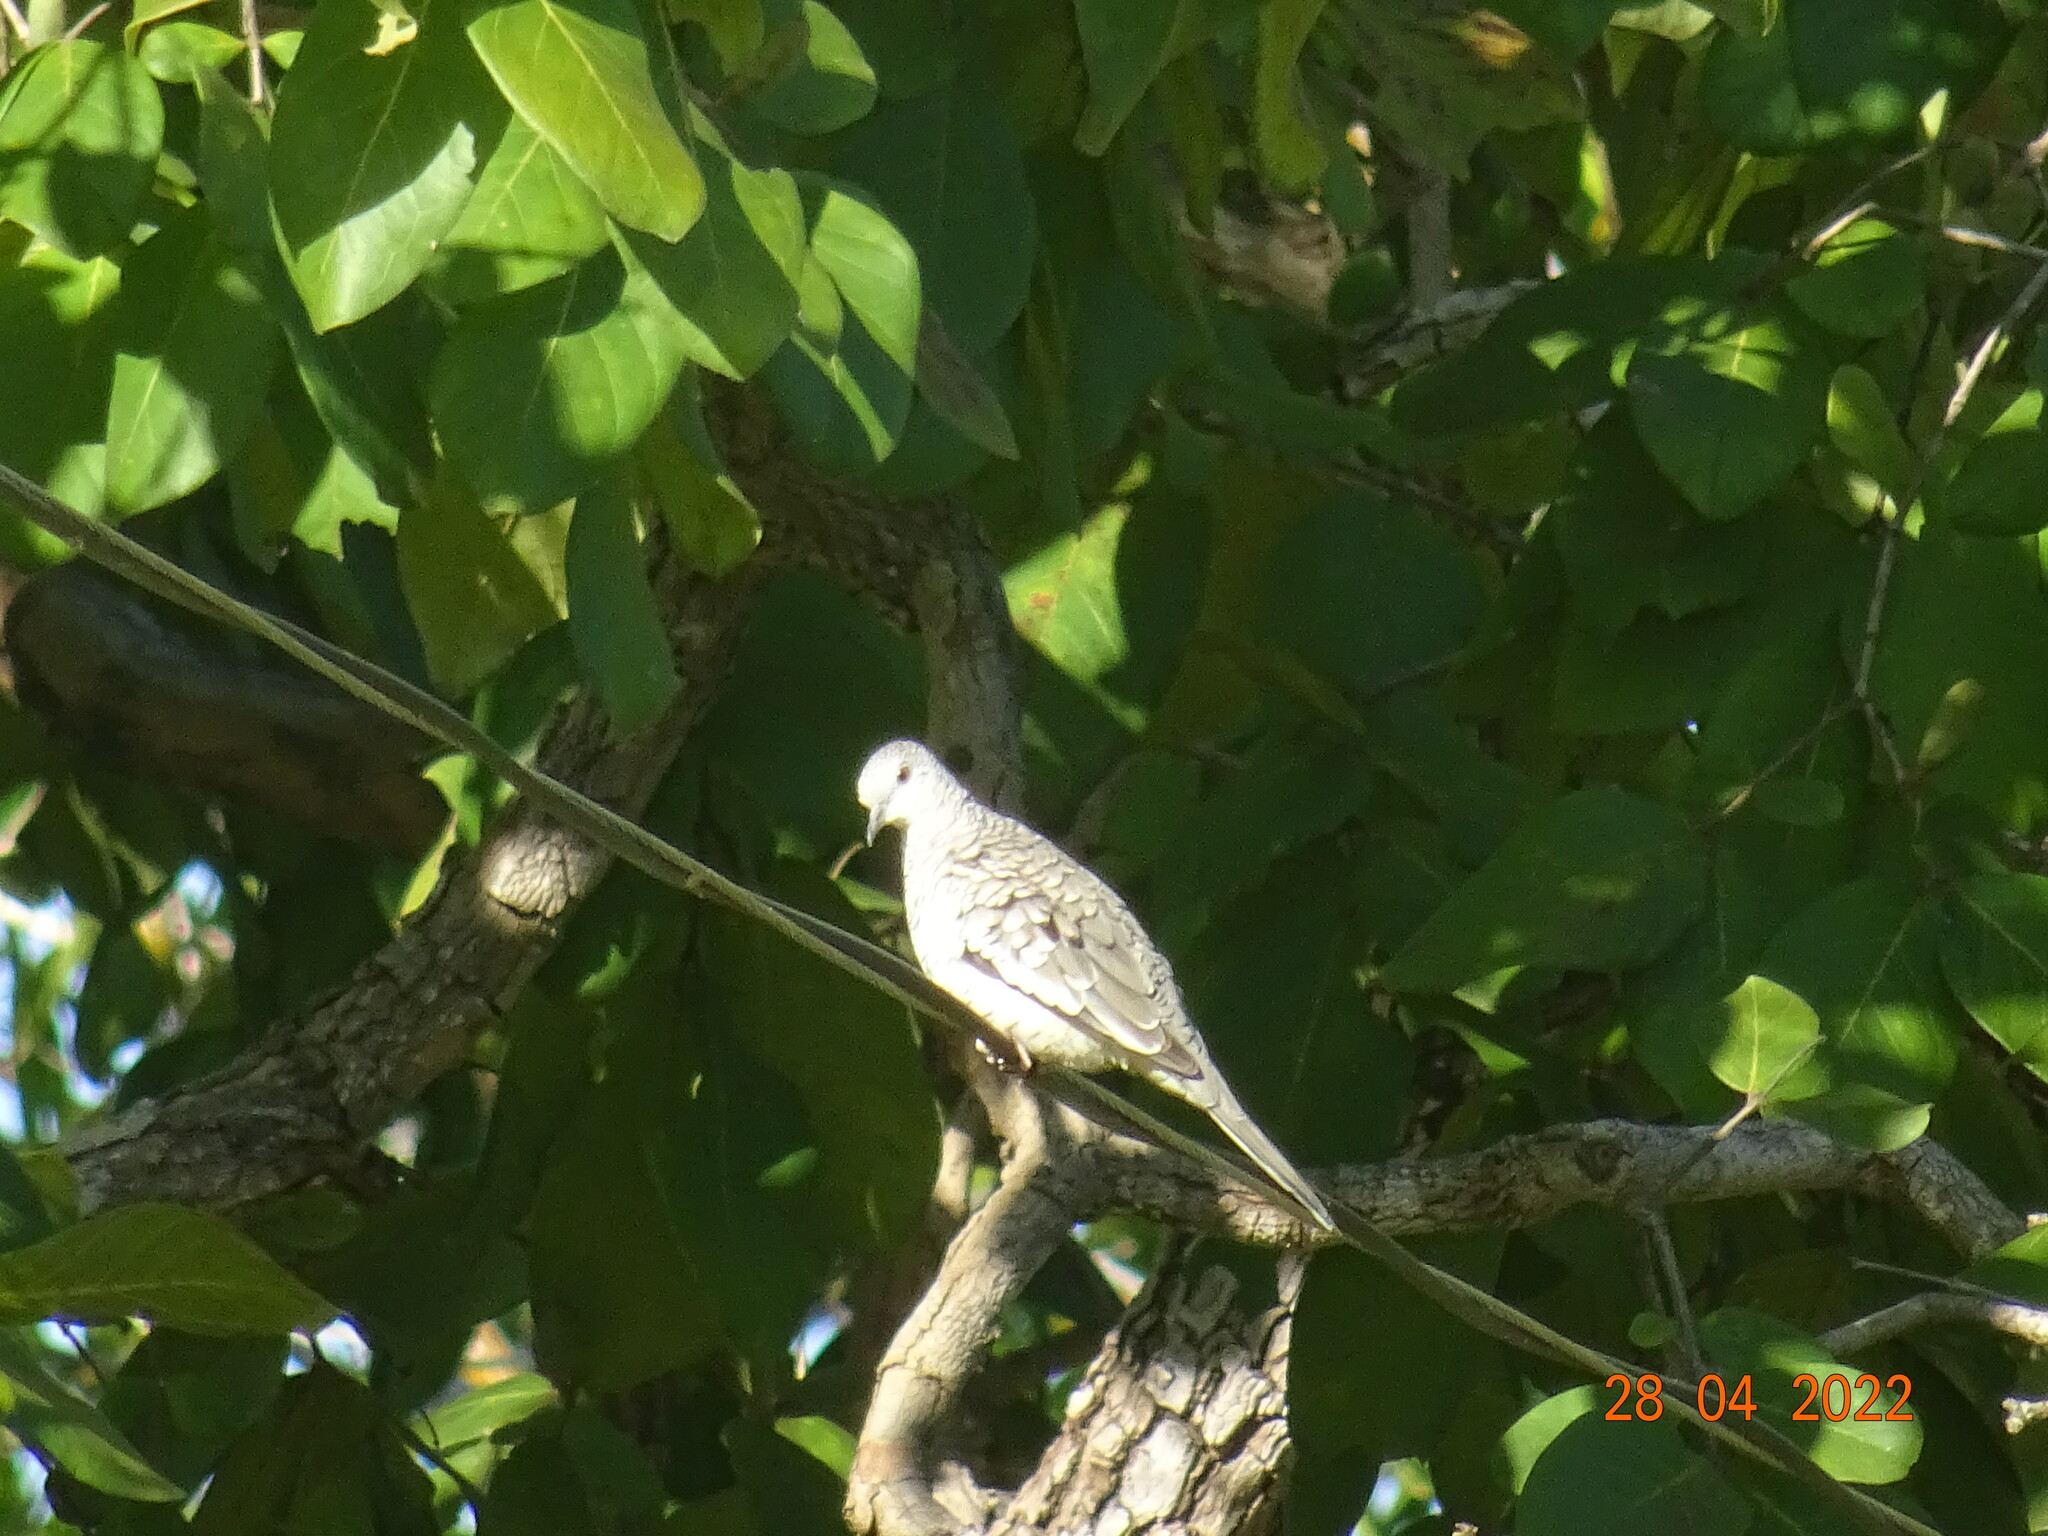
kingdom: Animalia
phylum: Chordata
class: Aves
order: Columbiformes
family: Columbidae
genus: Columbina
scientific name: Columbina squammata
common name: Scaled dove
